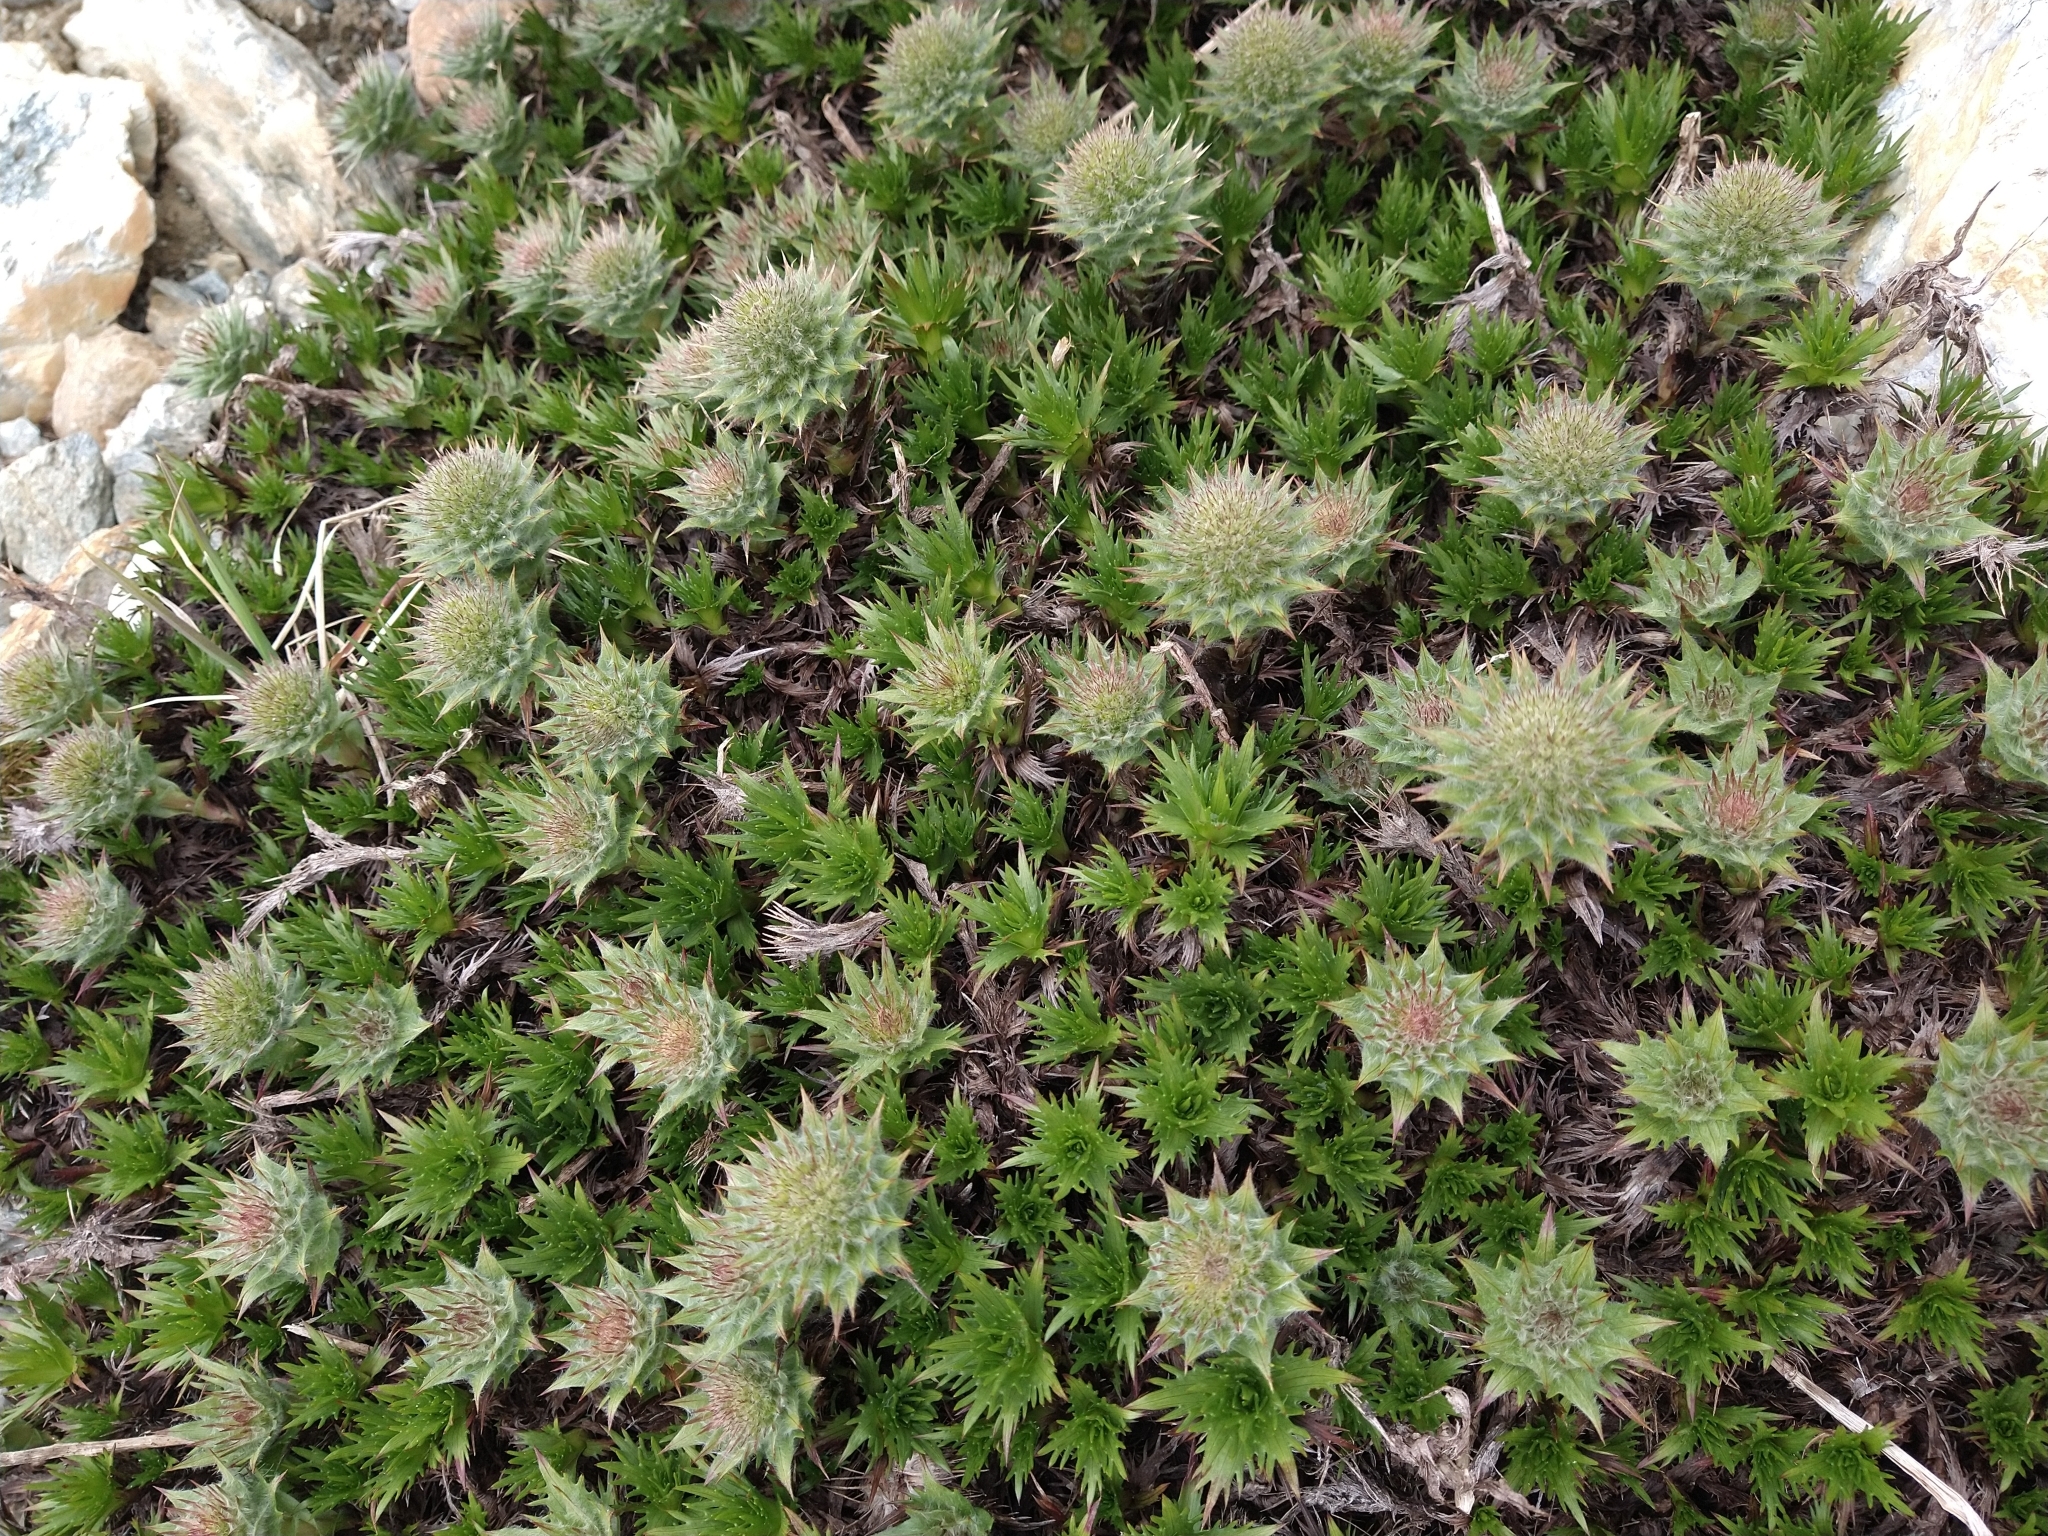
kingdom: Plantae
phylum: Tracheophyta
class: Magnoliopsida
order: Asterales
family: Asteraceae
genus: Nassauvia
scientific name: Nassauvia magellanica
